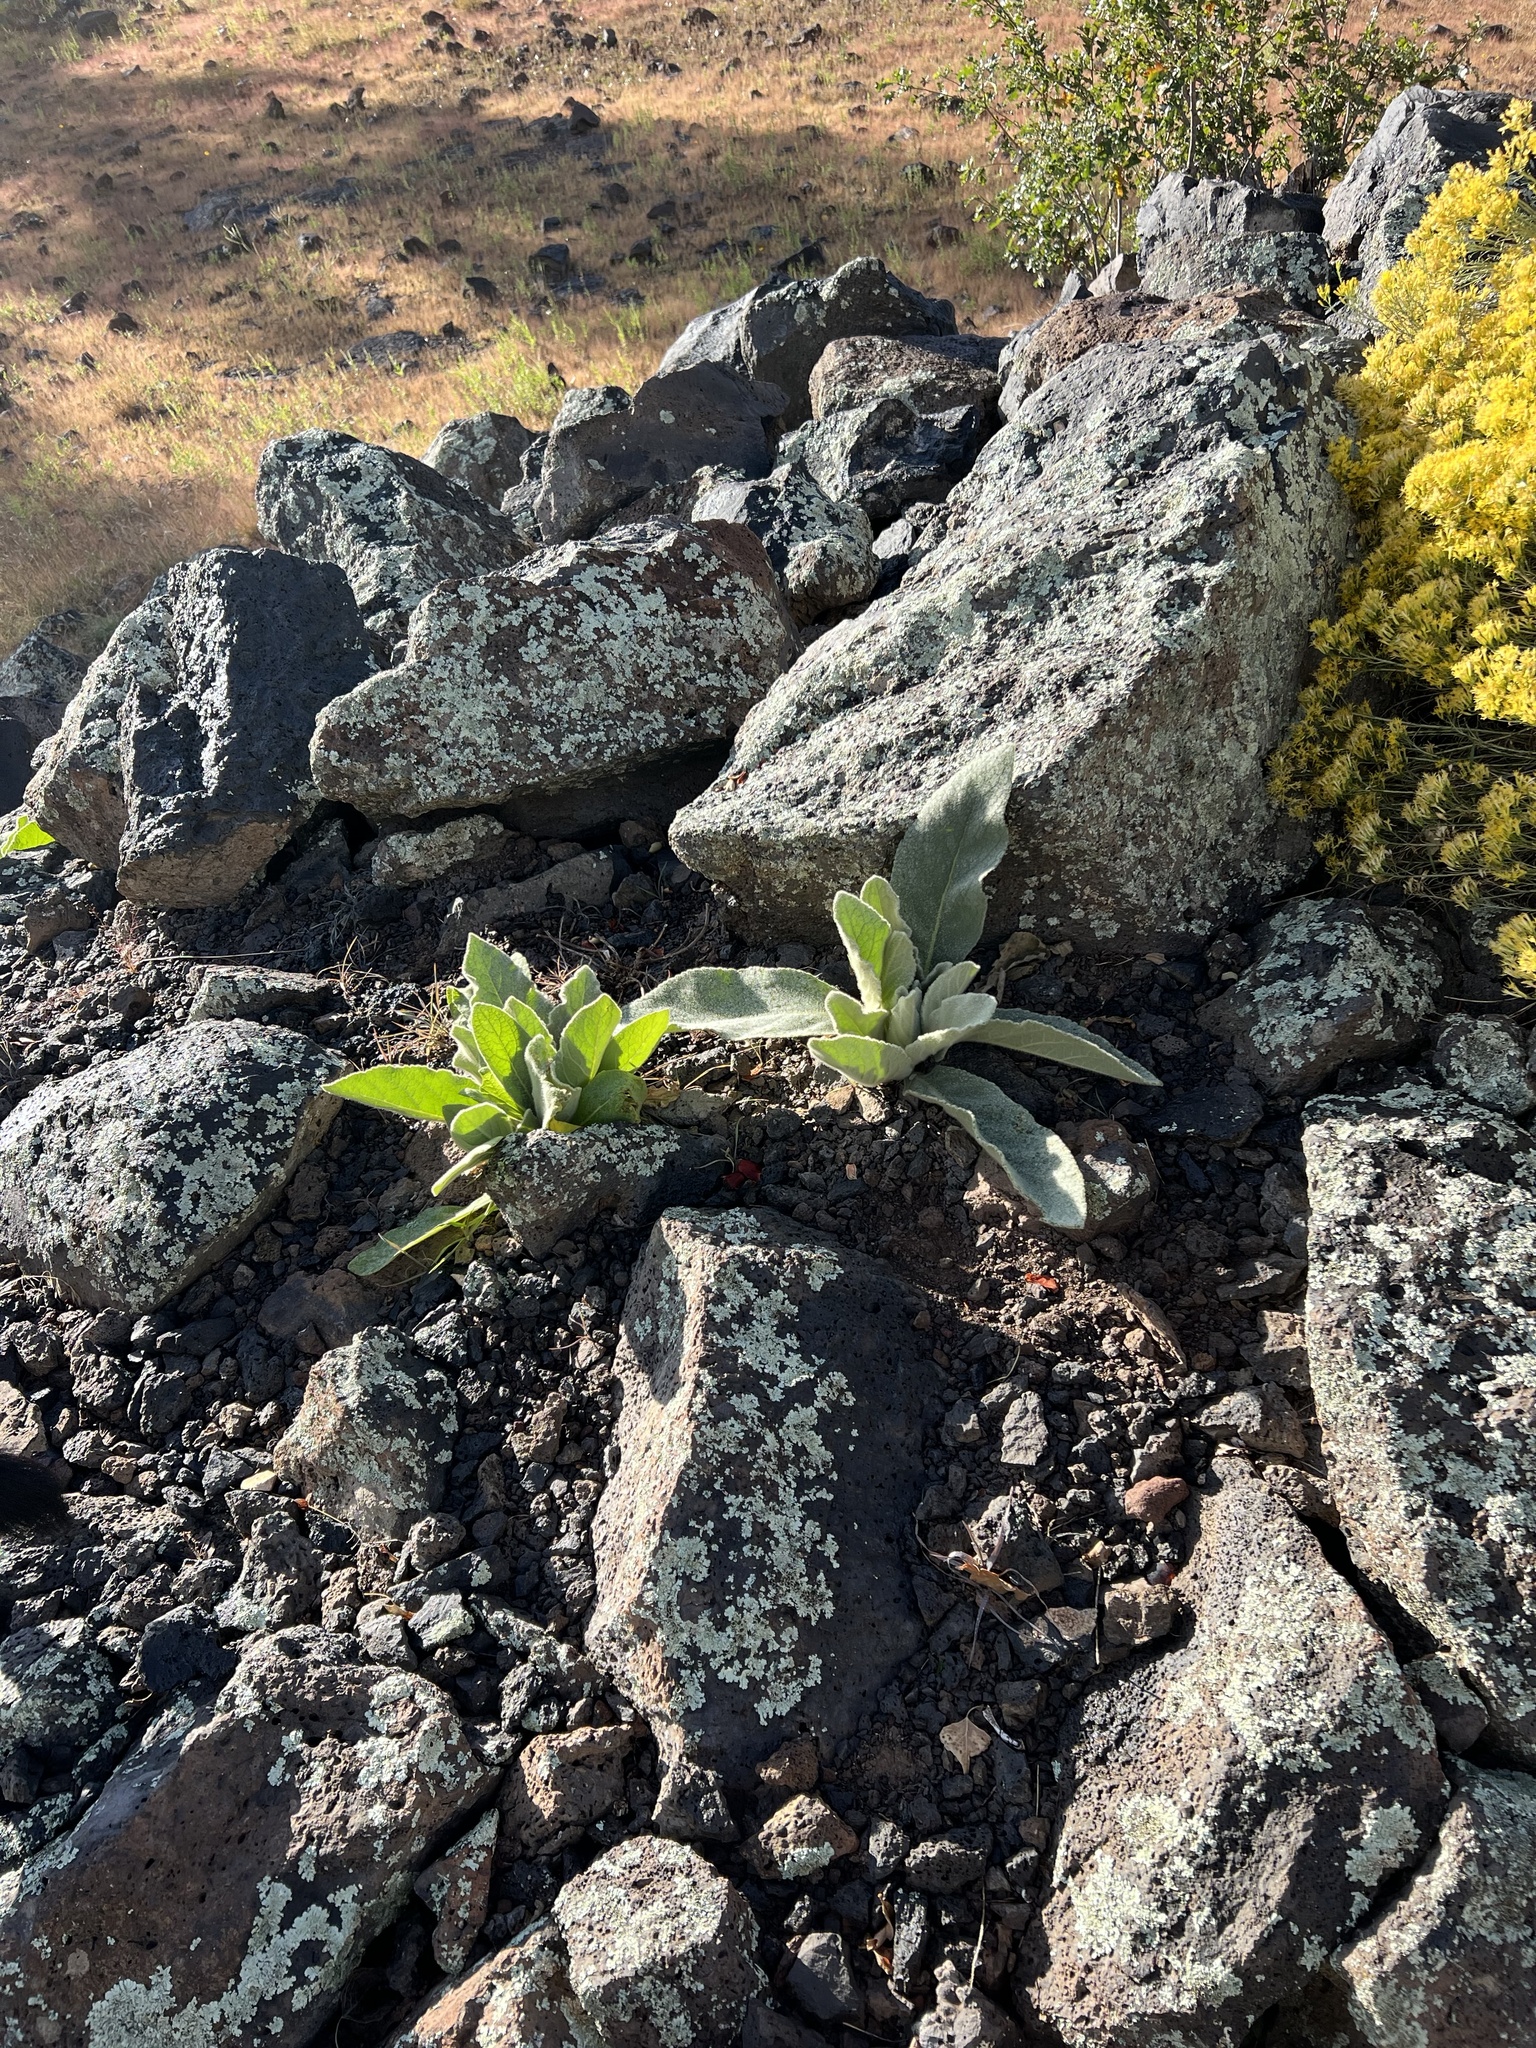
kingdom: Plantae
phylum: Tracheophyta
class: Magnoliopsida
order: Lamiales
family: Scrophulariaceae
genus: Verbascum
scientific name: Verbascum thapsus
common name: Common mullein
